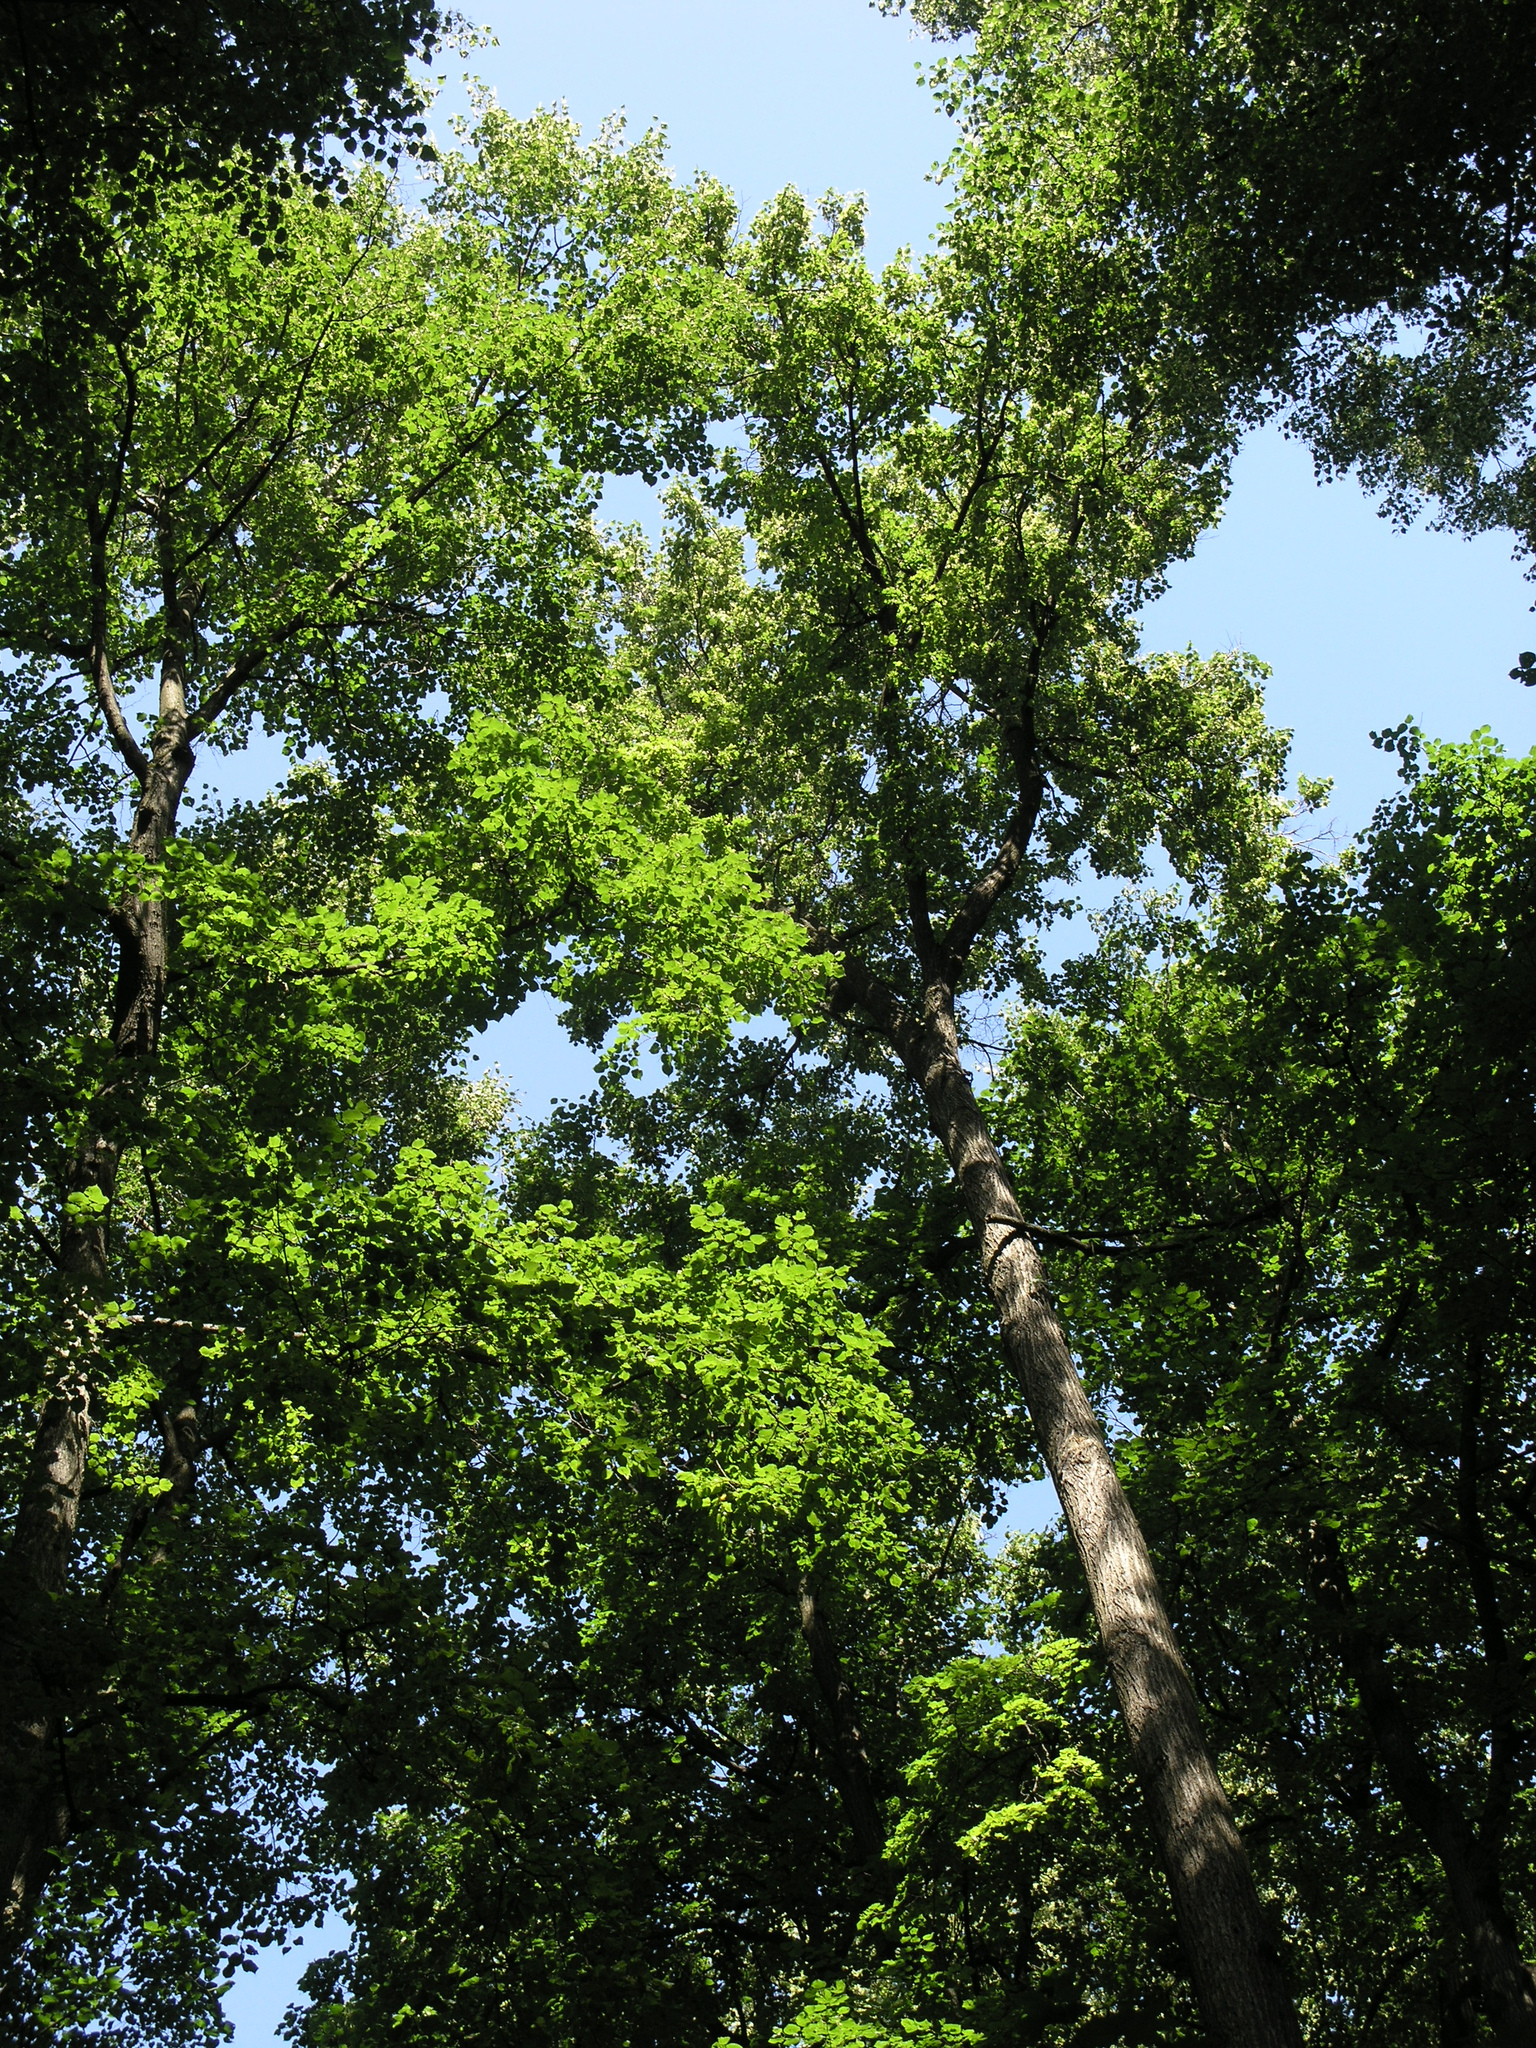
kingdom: Plantae
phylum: Tracheophyta
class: Magnoliopsida
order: Malvales
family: Malvaceae
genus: Tilia
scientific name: Tilia cordata
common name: Small-leaved lime
